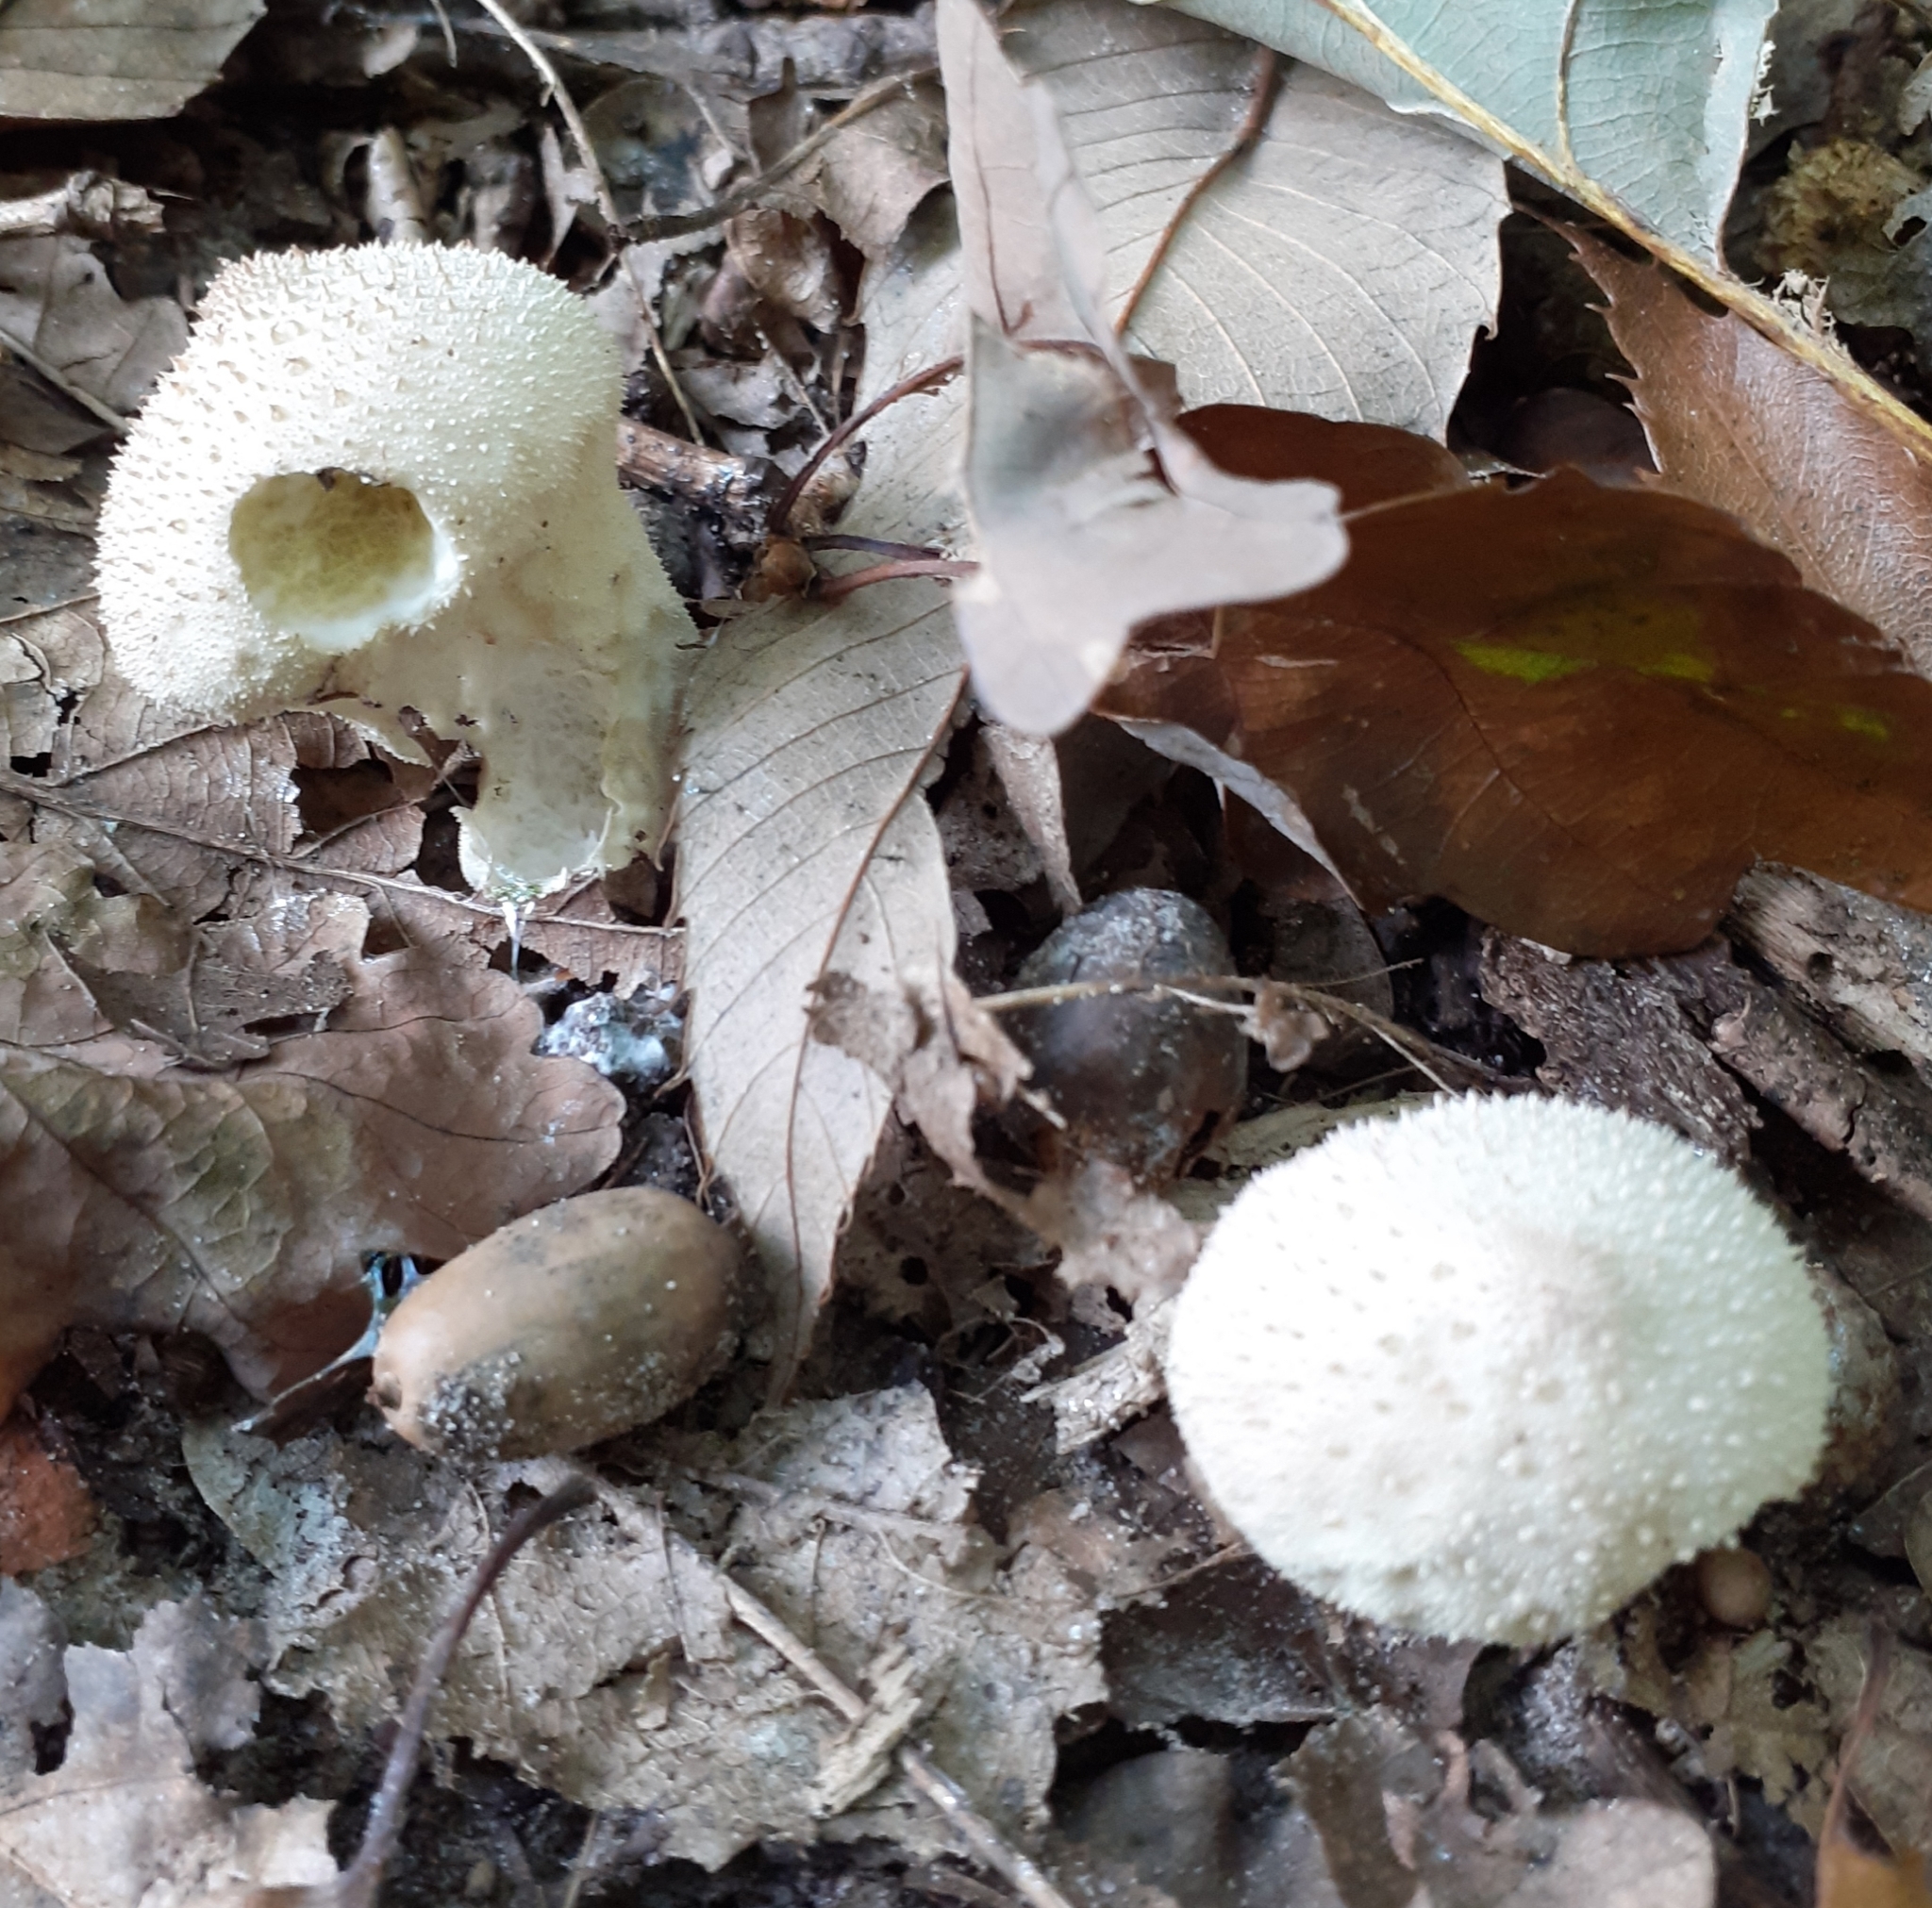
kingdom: Fungi
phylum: Basidiomycota
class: Agaricomycetes
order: Agaricales
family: Lycoperdaceae
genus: Lycoperdon
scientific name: Lycoperdon perlatum
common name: Common puffball
